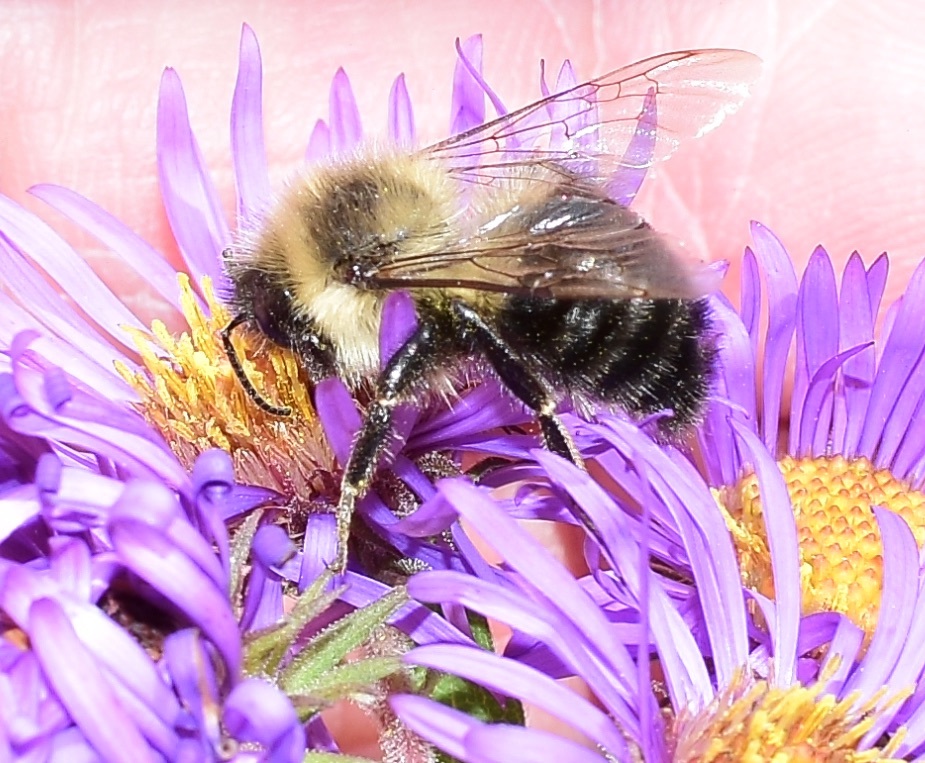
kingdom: Animalia
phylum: Arthropoda
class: Insecta
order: Hymenoptera
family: Apidae
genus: Bombus
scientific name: Bombus impatiens
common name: Common eastern bumble bee
